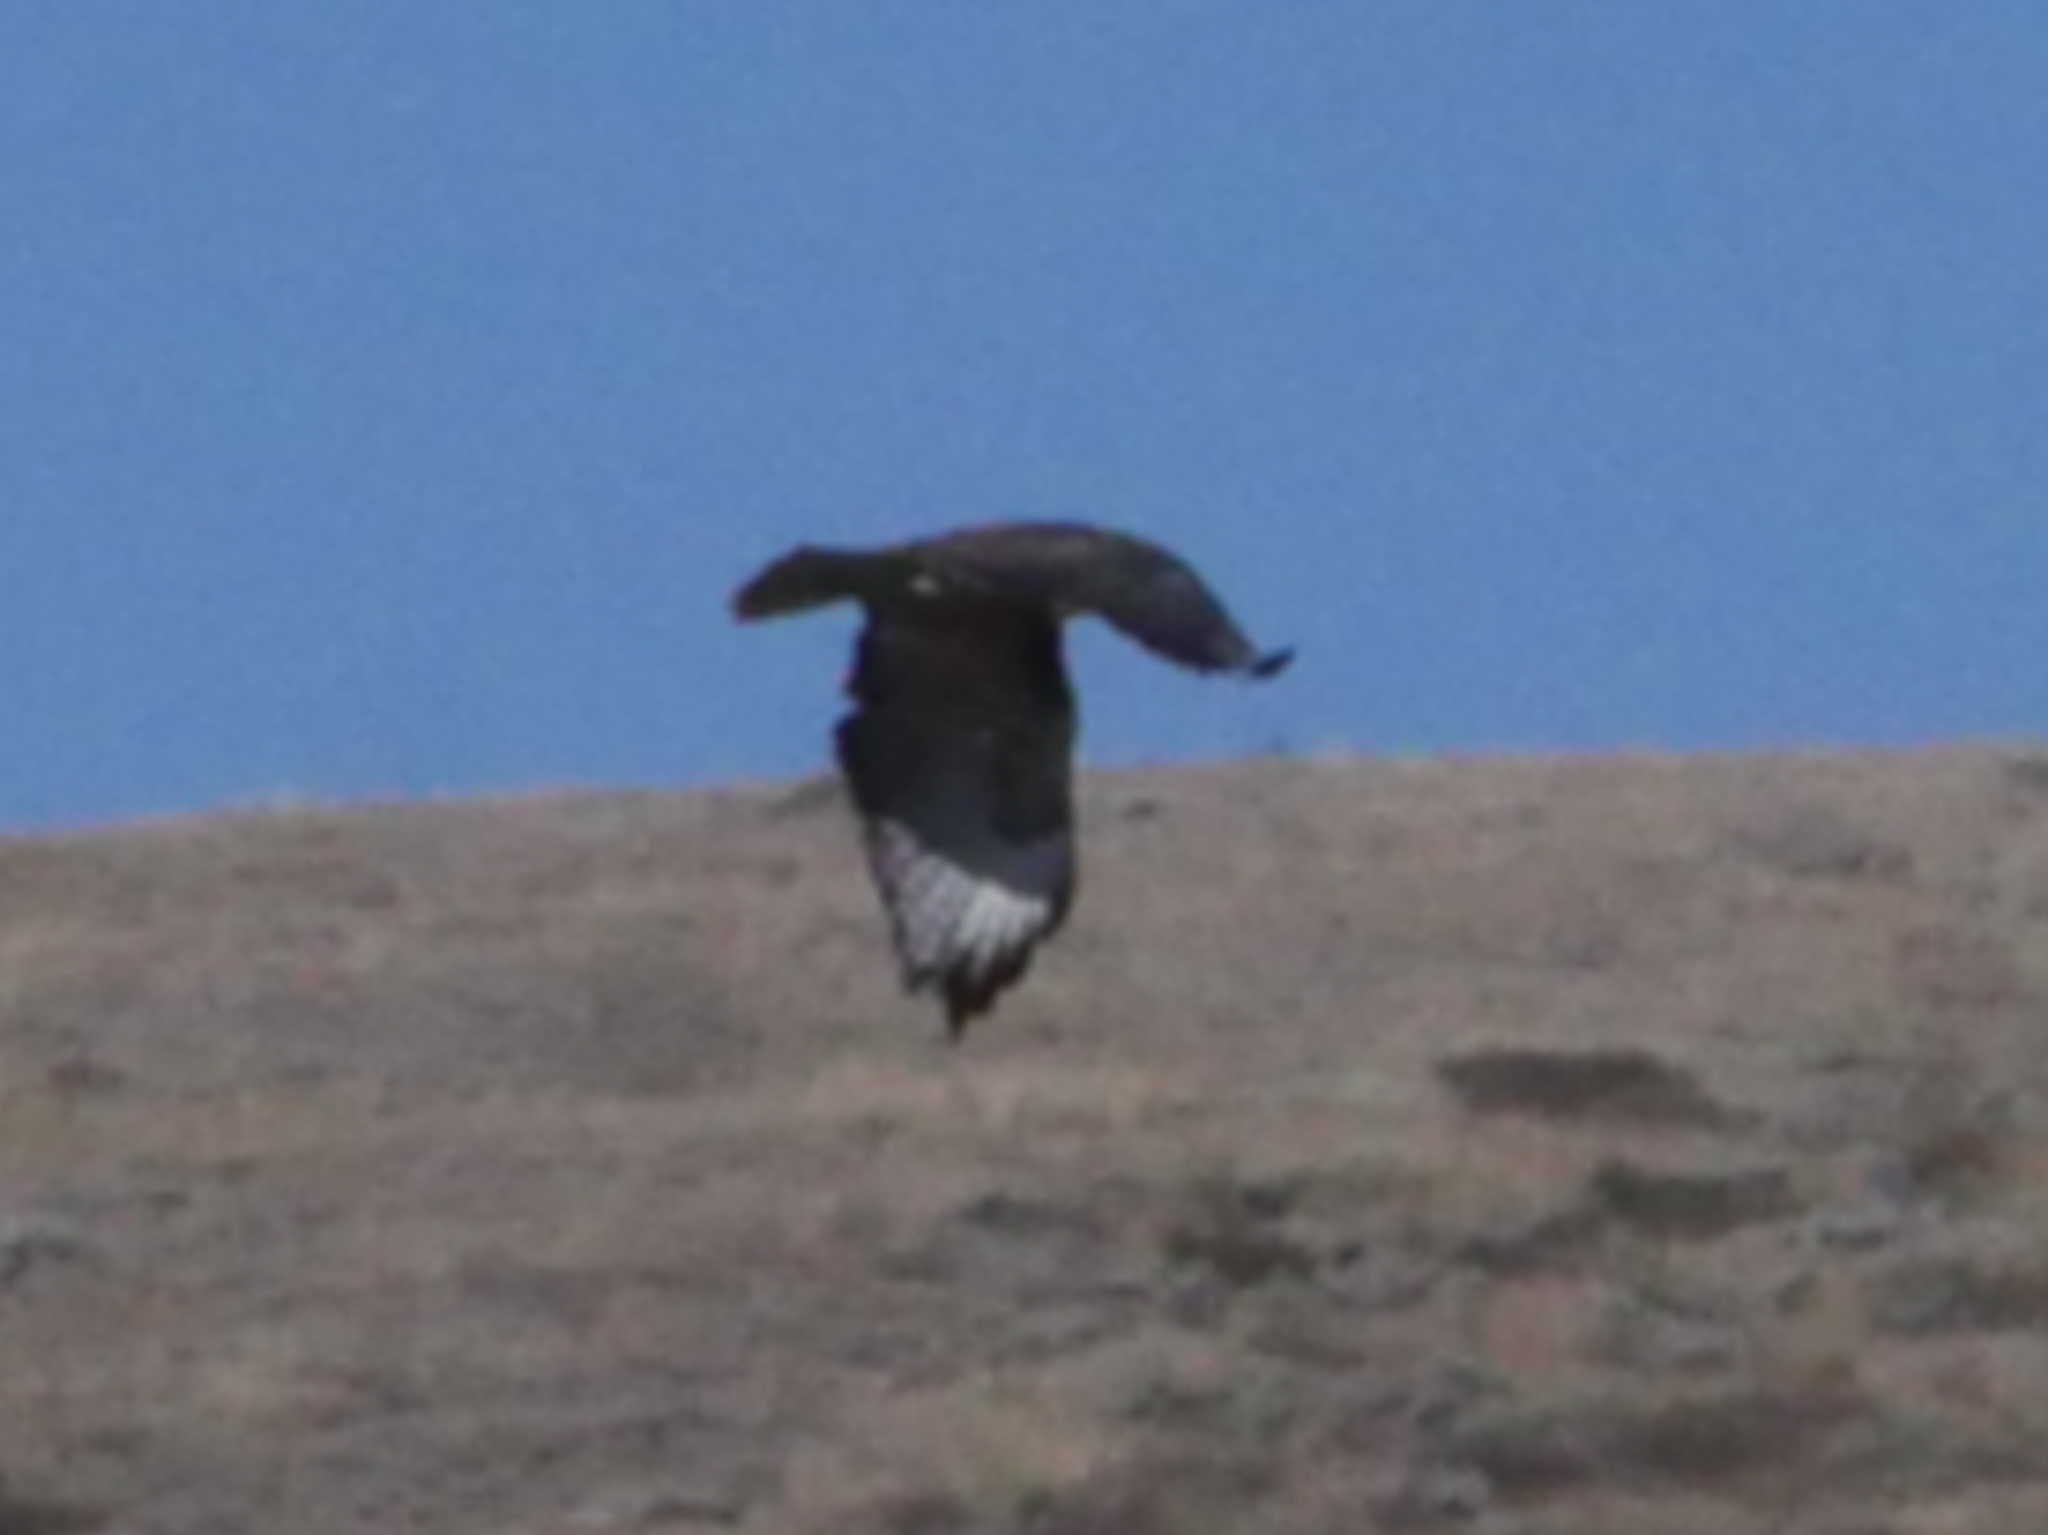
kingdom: Animalia
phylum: Chordata
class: Aves
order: Accipitriformes
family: Accipitridae
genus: Buteo
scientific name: Buteo jamaicensis
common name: Red-tailed hawk
